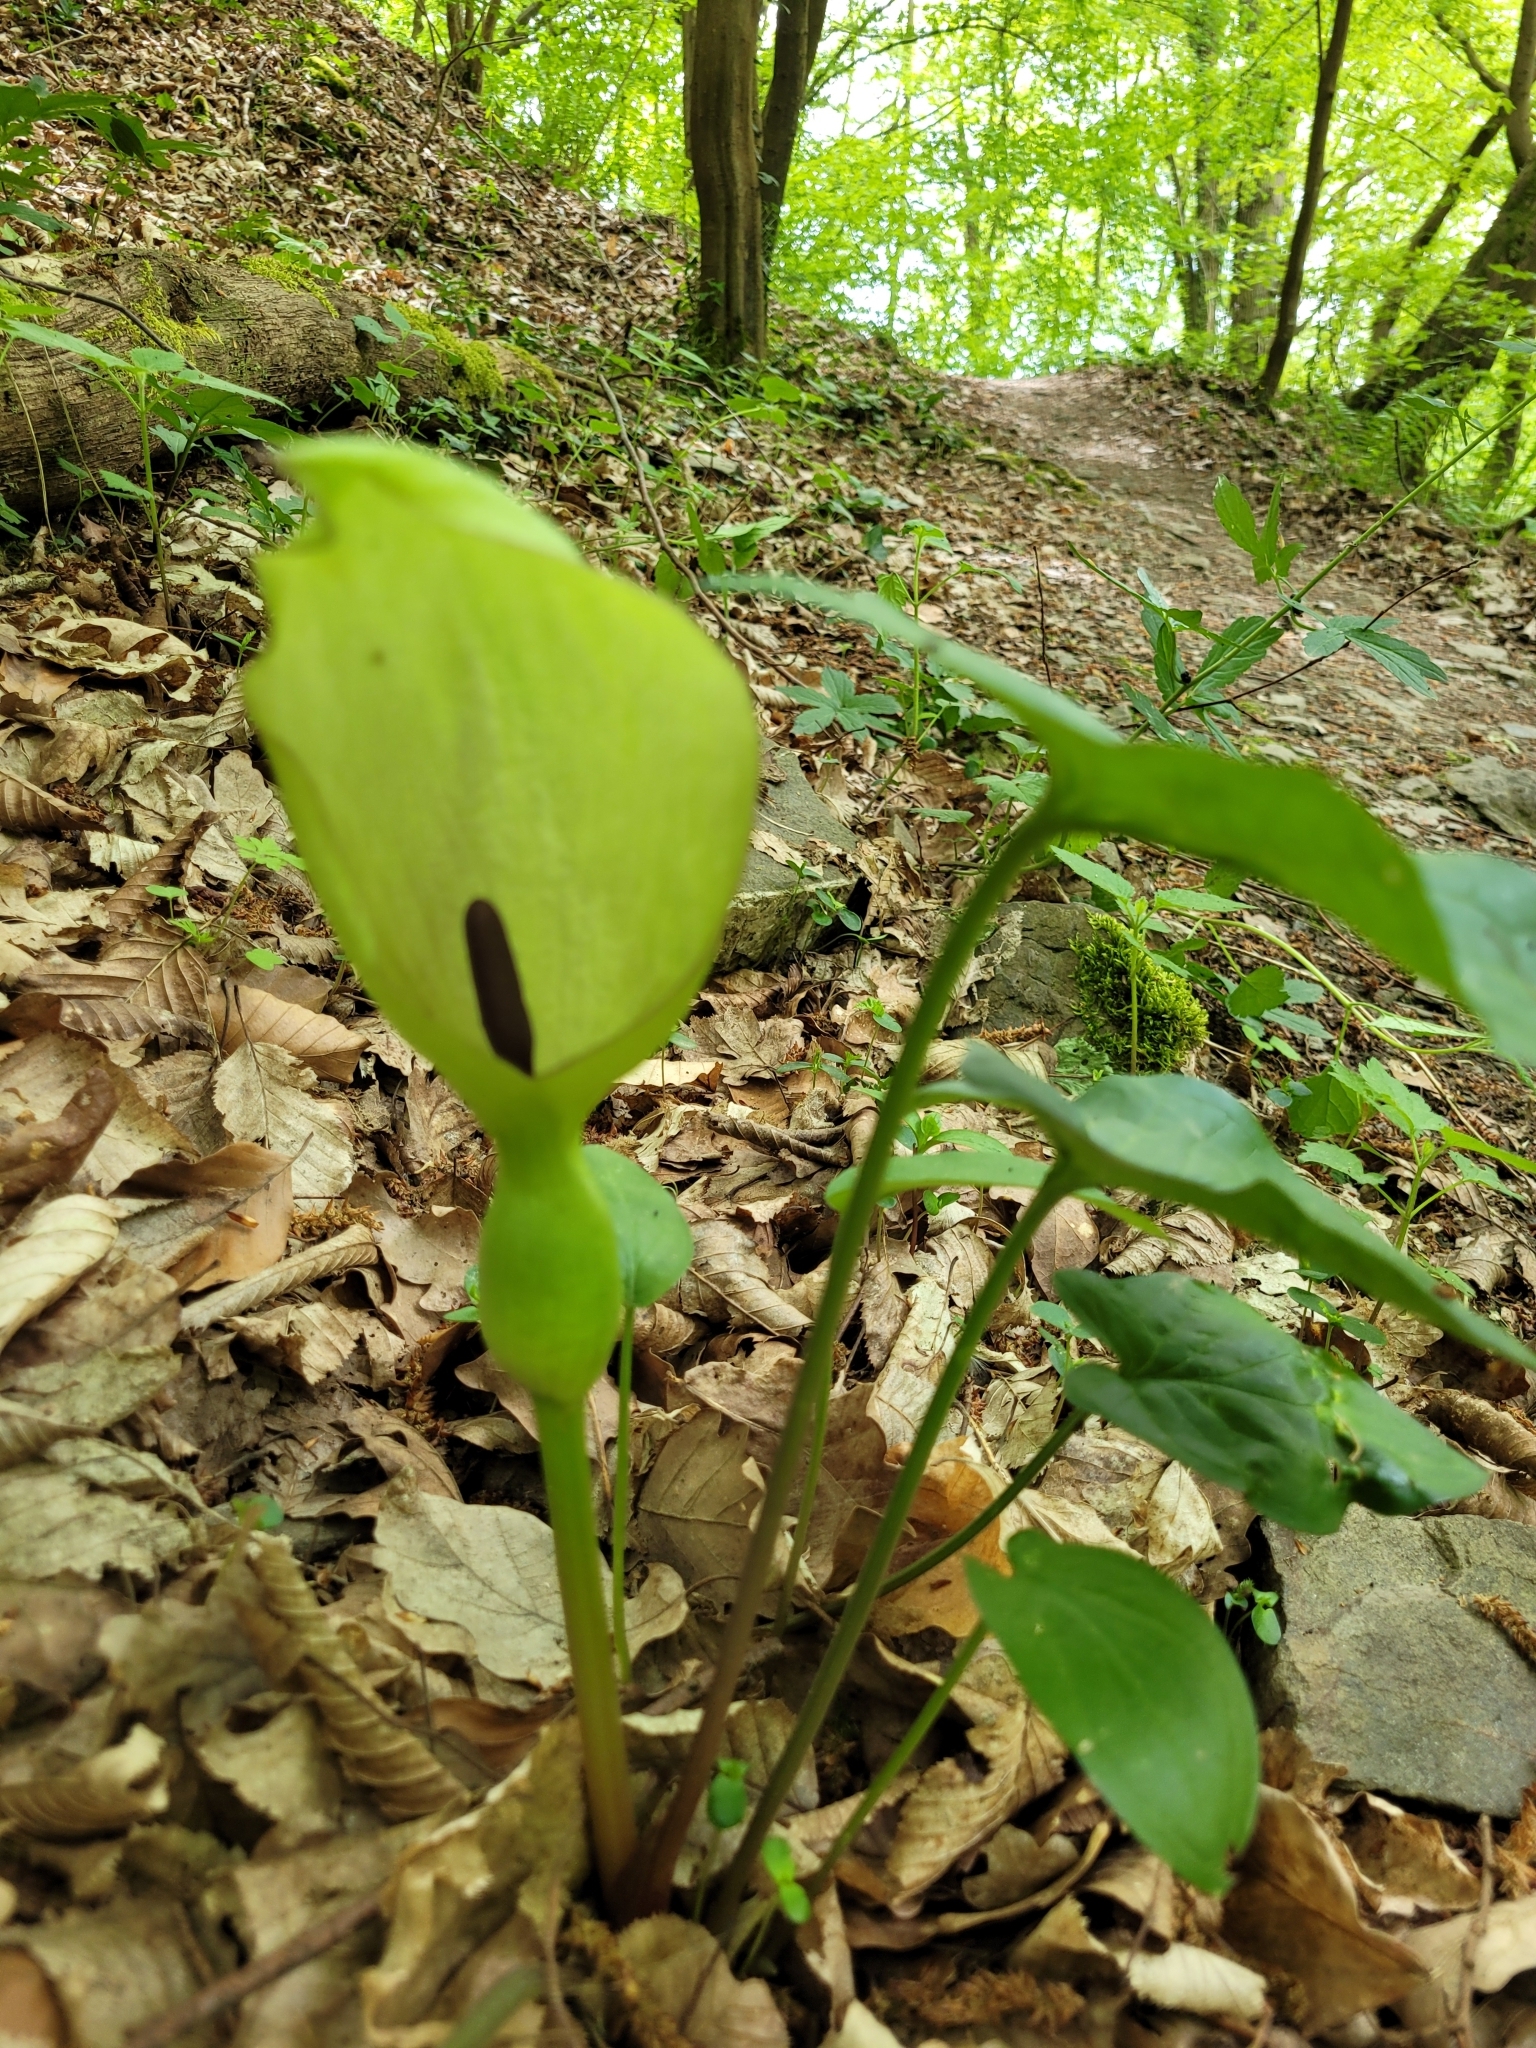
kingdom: Plantae
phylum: Tracheophyta
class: Liliopsida
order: Alismatales
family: Araceae
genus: Arum
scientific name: Arum maculatum
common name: Lords-and-ladies
